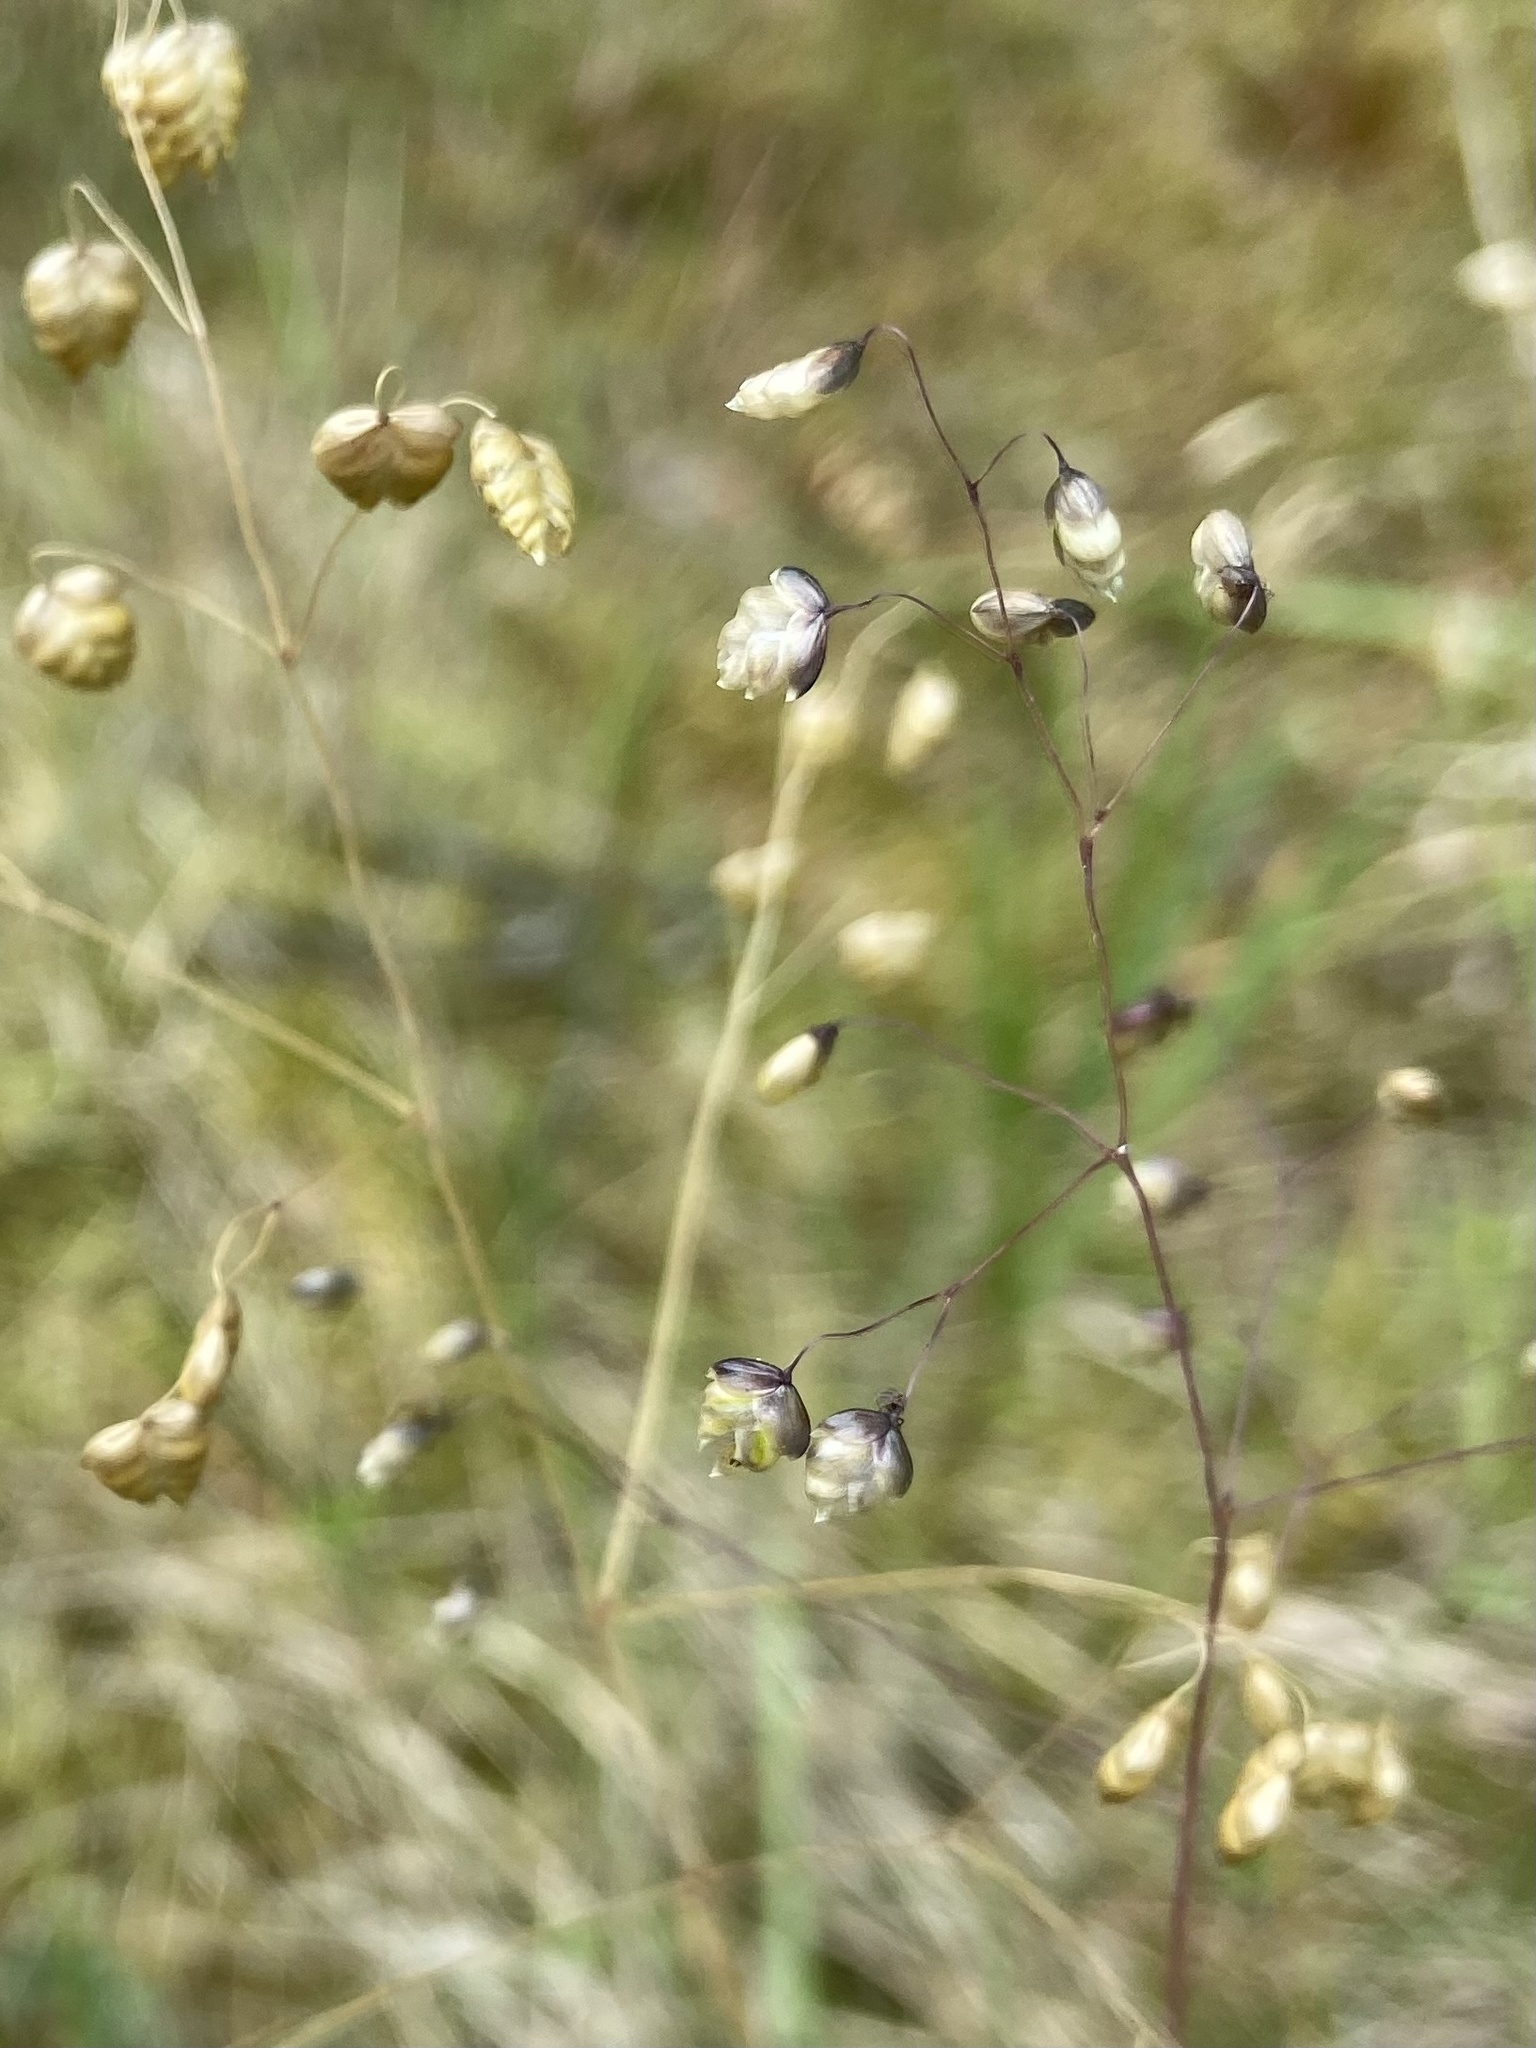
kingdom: Plantae
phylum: Tracheophyta
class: Liliopsida
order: Poales
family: Poaceae
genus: Briza
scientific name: Briza media
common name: Quaking grass
